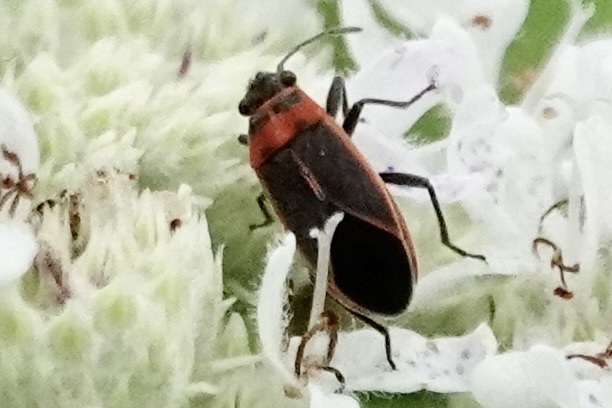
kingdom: Animalia
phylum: Arthropoda
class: Insecta
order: Hemiptera
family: Lygaeidae
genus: Ochrimnus
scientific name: Ochrimnus lineoloides
